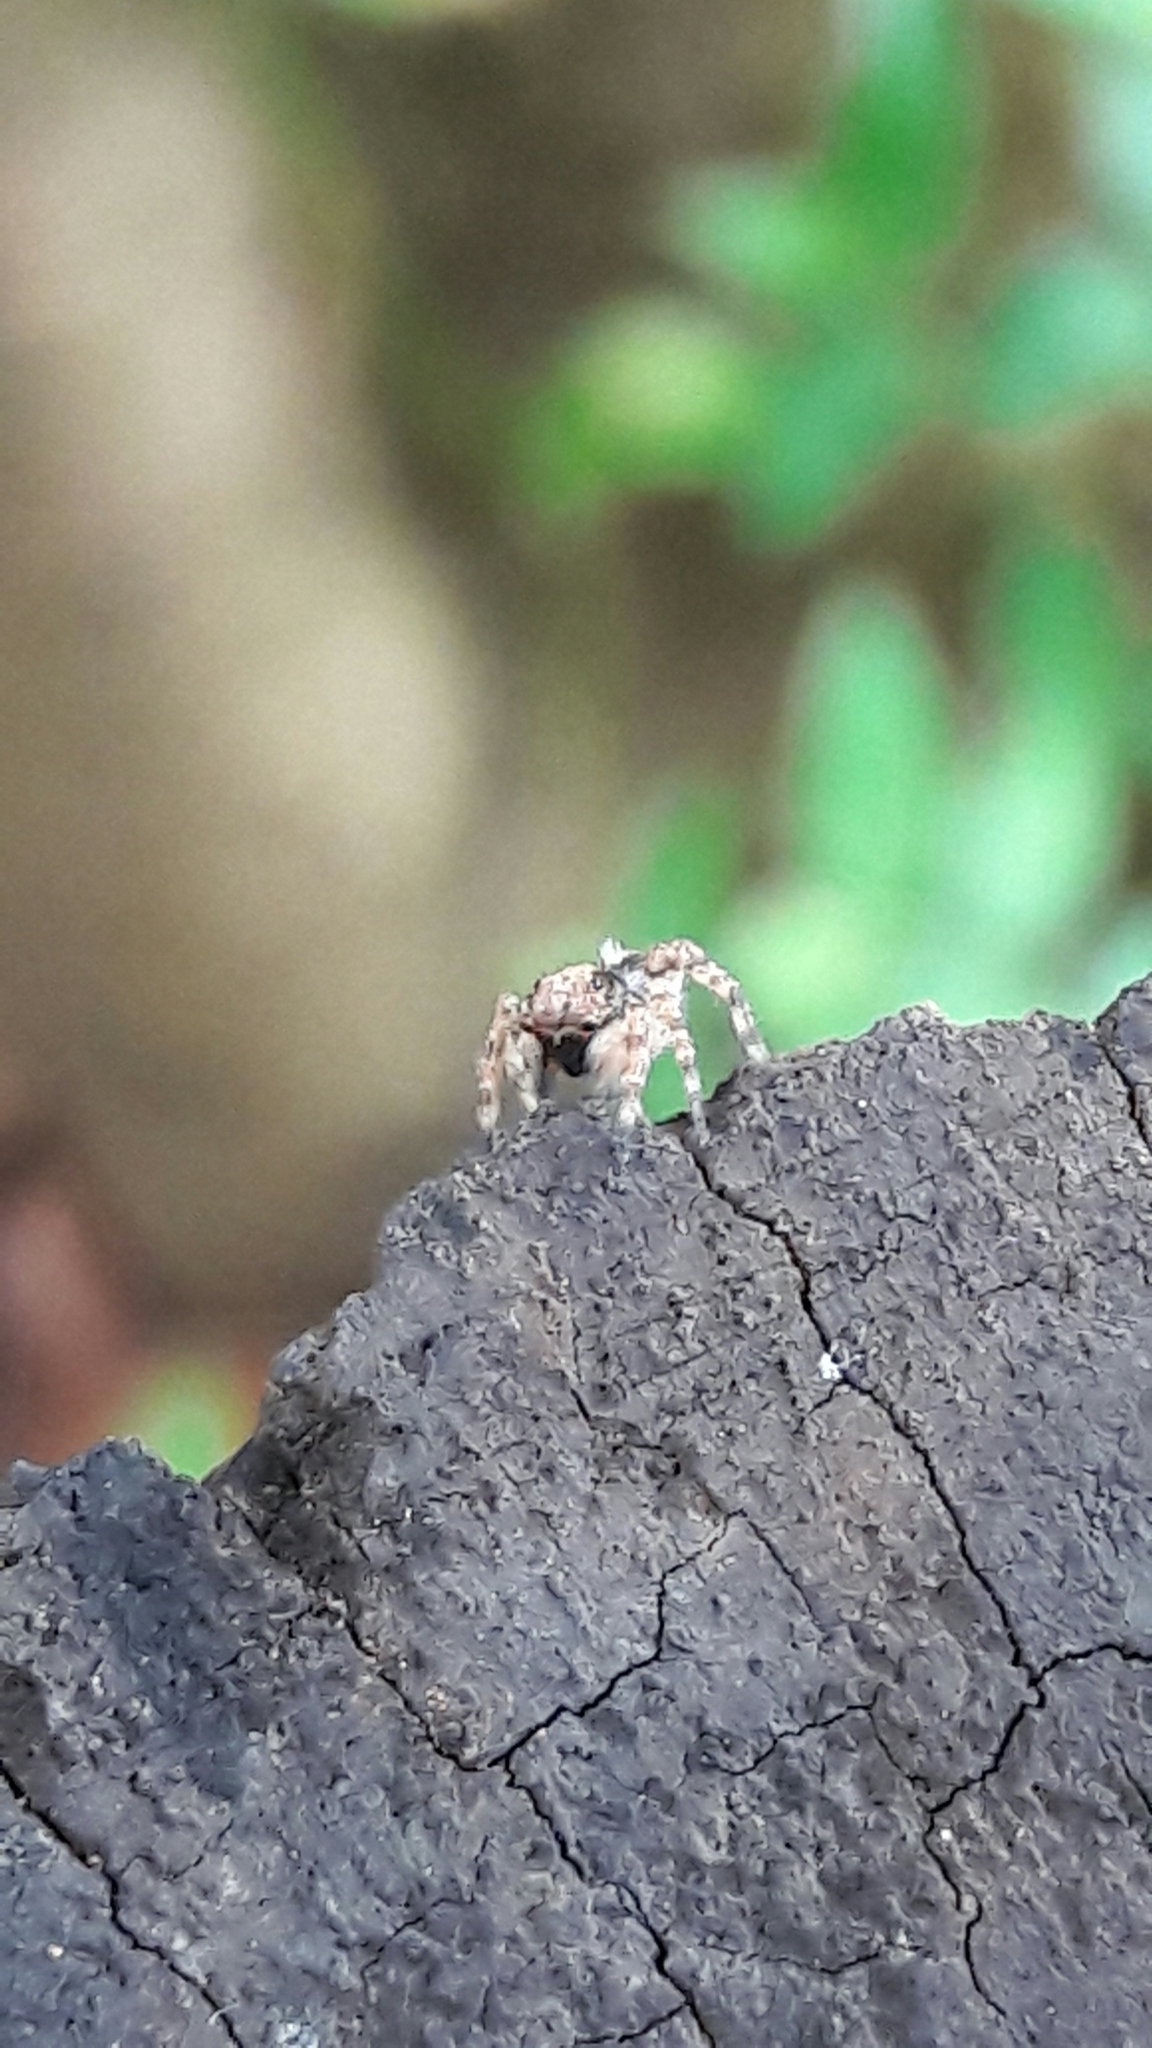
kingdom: Animalia
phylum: Arthropoda
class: Arachnida
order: Araneae
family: Salticidae
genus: Marma
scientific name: Marma nigritarsis
